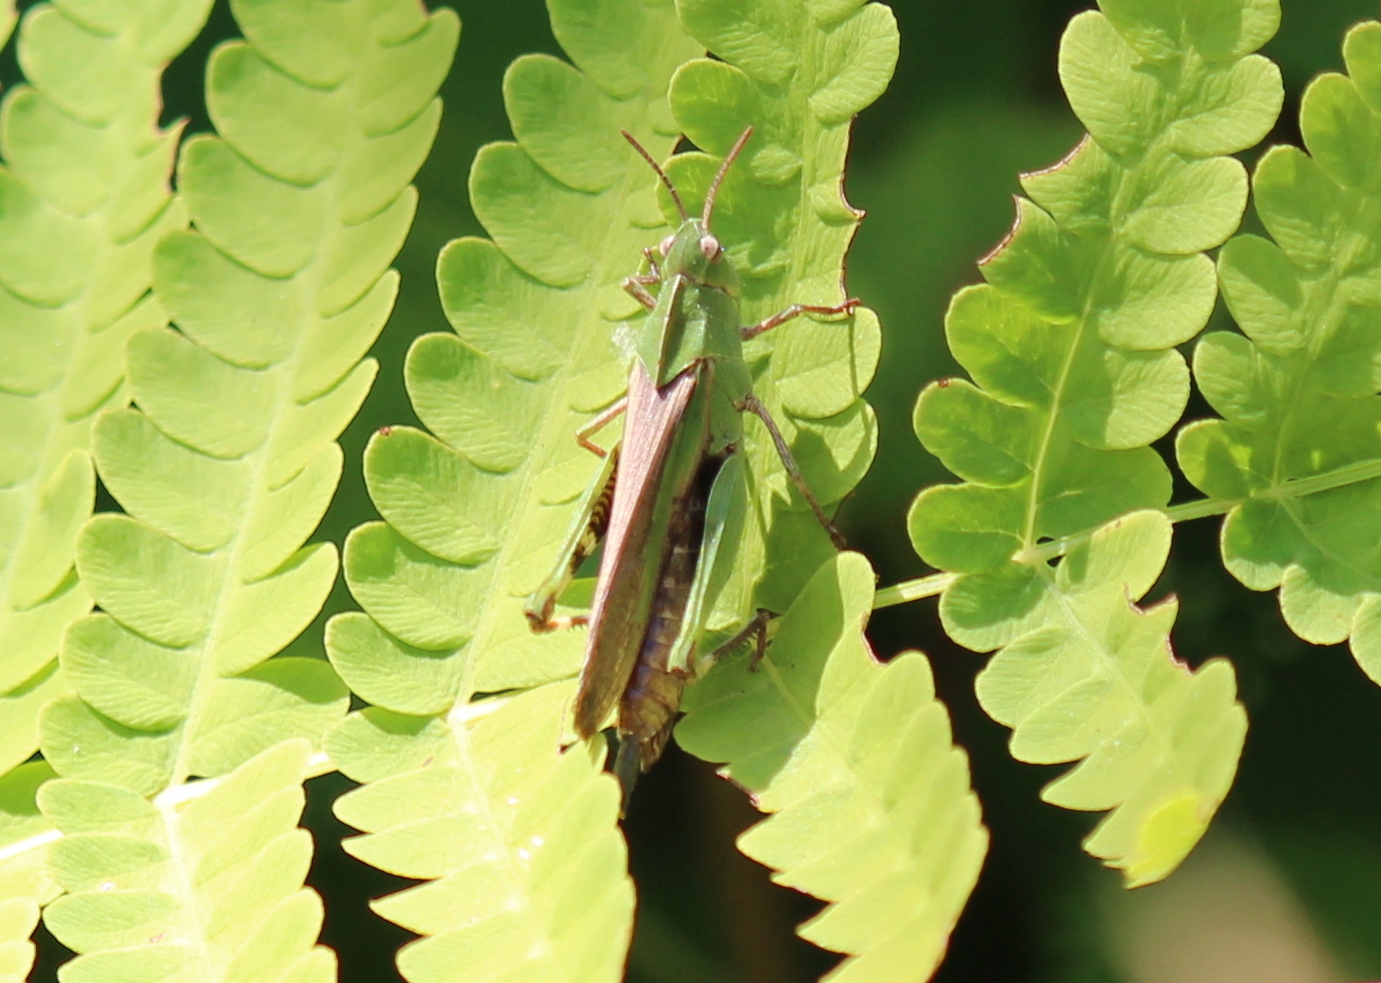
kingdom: Animalia
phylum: Arthropoda
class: Insecta
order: Orthoptera
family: Acrididae
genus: Chortophaga
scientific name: Chortophaga viridifasciata
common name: Green-striped grasshopper
